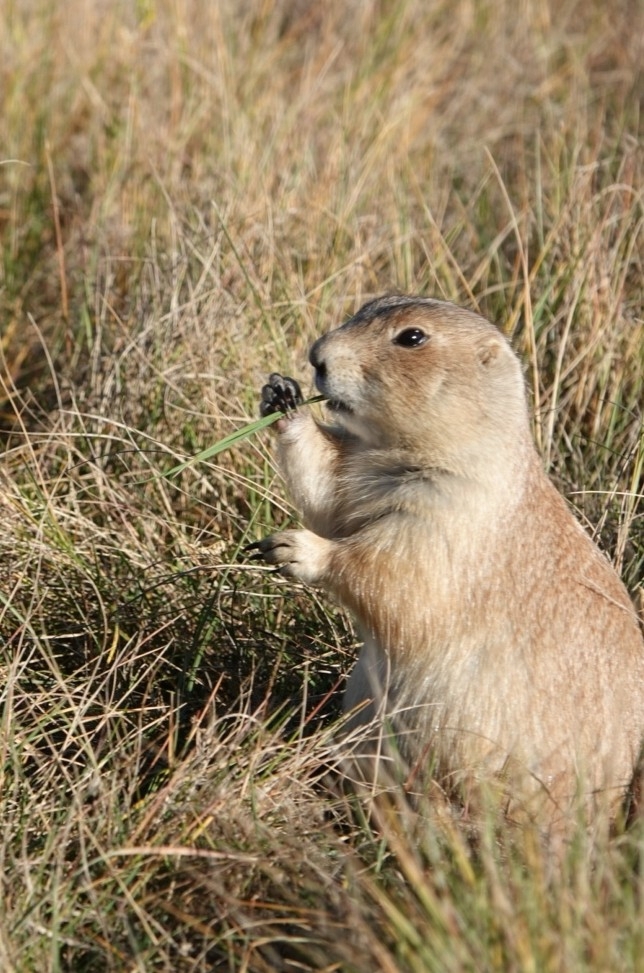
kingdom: Animalia
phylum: Chordata
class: Mammalia
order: Rodentia
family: Sciuridae
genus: Cynomys
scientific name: Cynomys ludovicianus
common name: Black-tailed prairie dog
